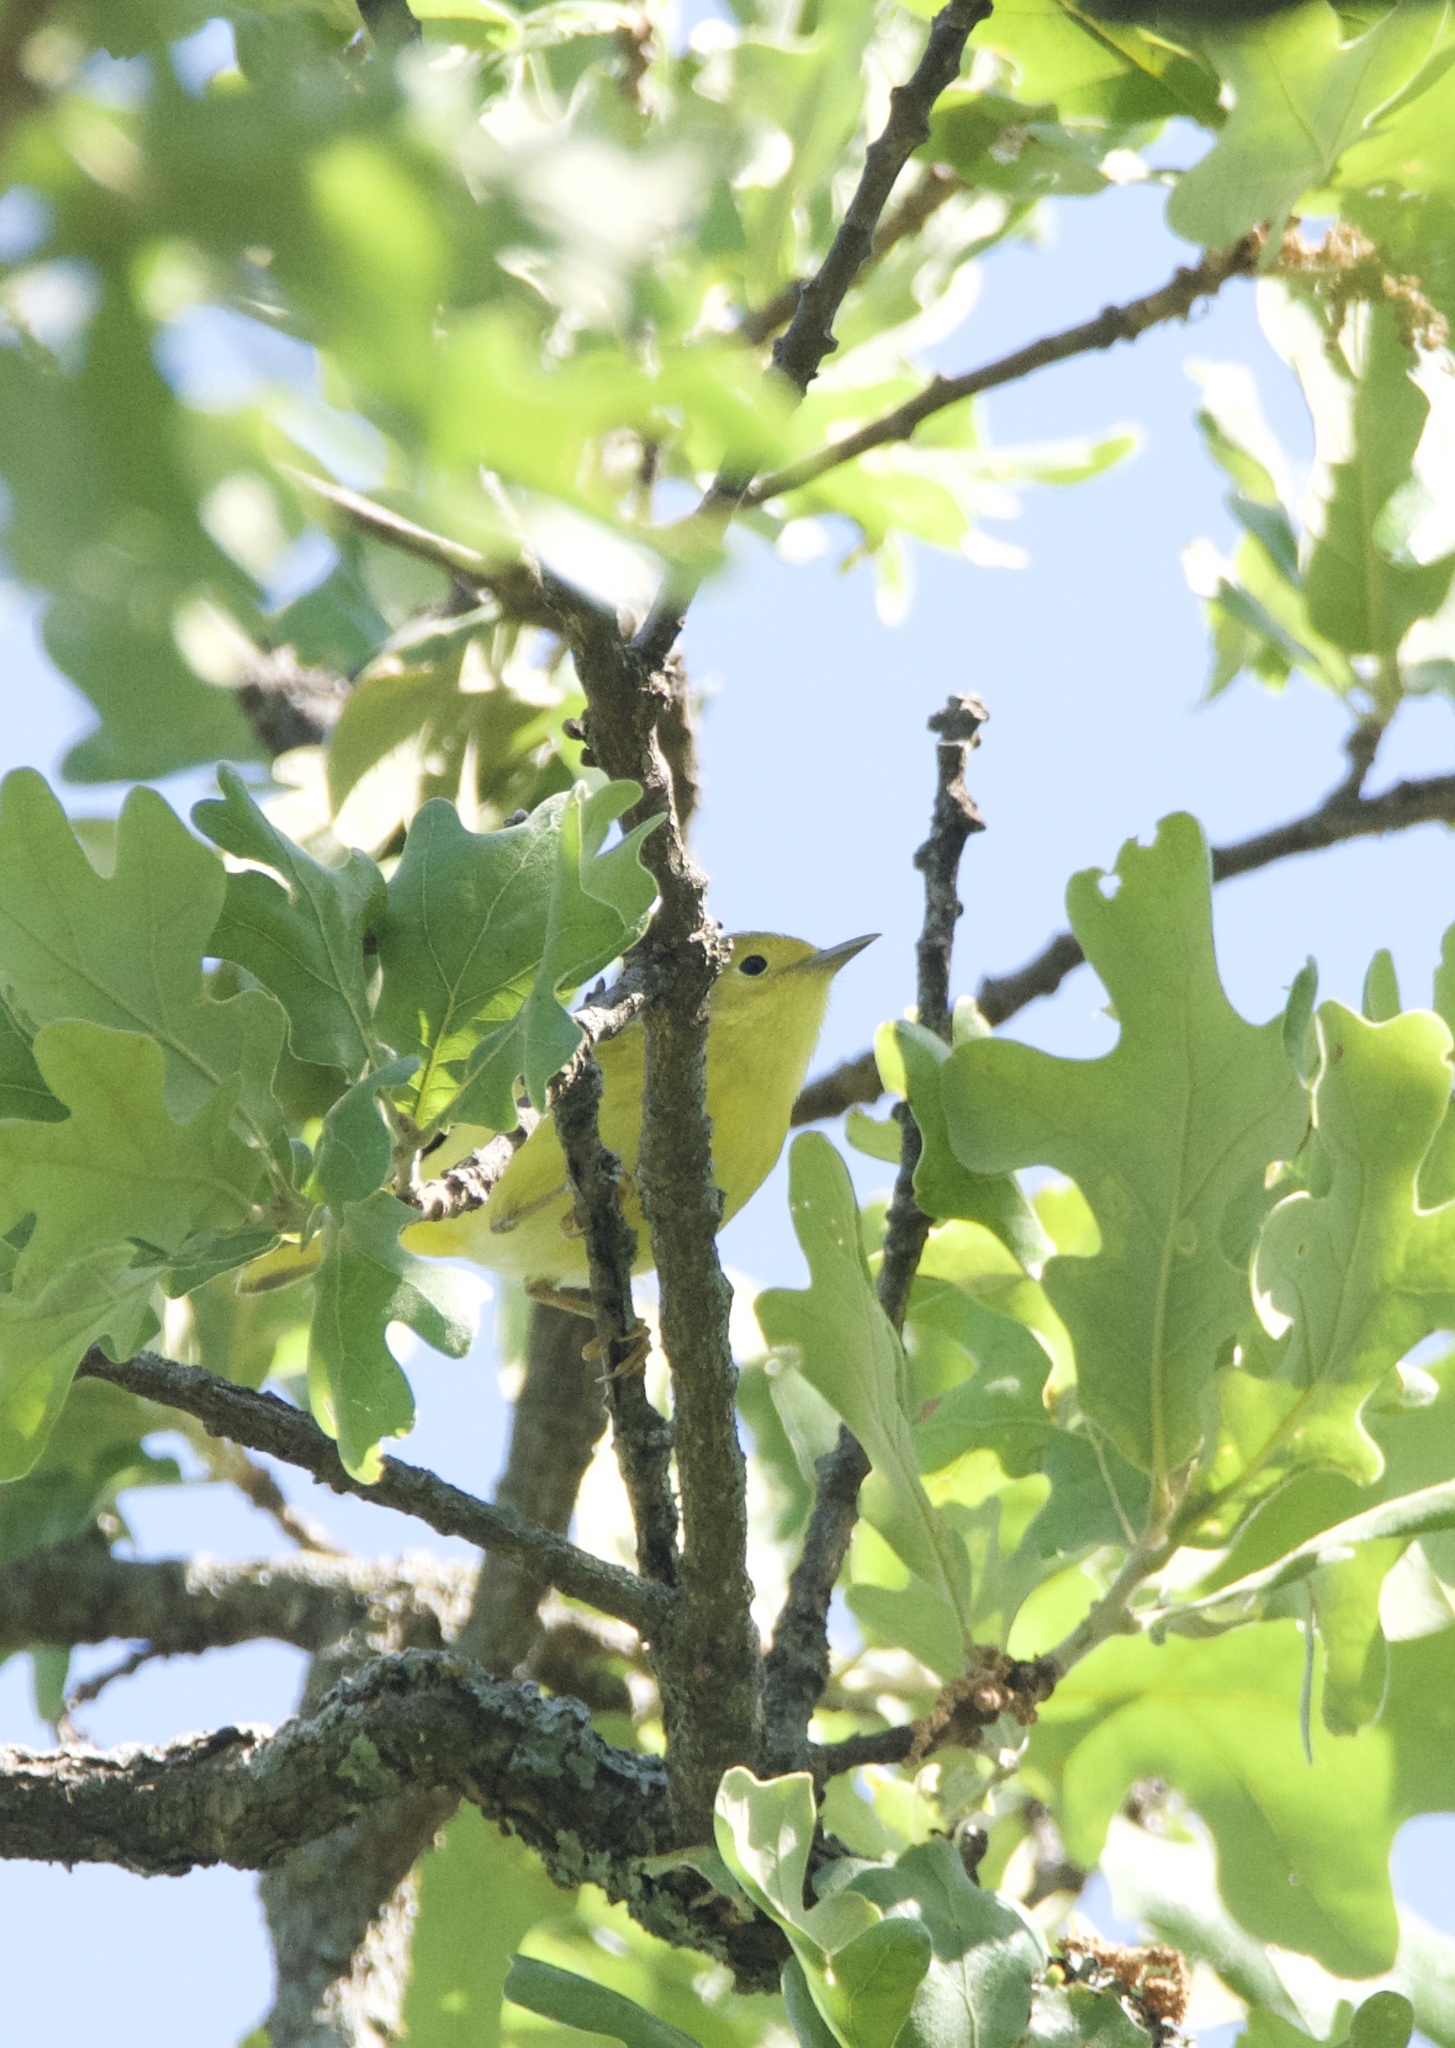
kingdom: Animalia
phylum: Chordata
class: Aves
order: Passeriformes
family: Parulidae
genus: Setophaga
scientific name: Setophaga petechia
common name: Yellow warbler
